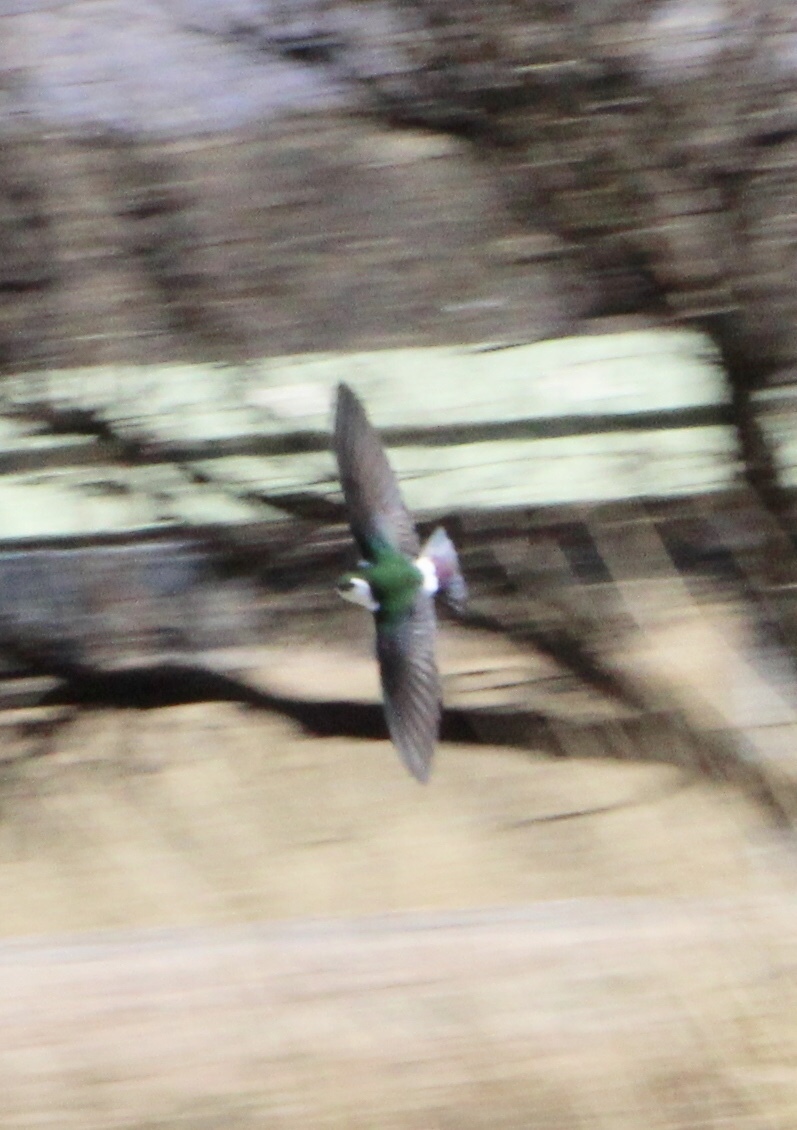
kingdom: Animalia
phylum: Chordata
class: Aves
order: Passeriformes
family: Hirundinidae
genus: Tachycineta
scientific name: Tachycineta thalassina
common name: Violet-green swallow
